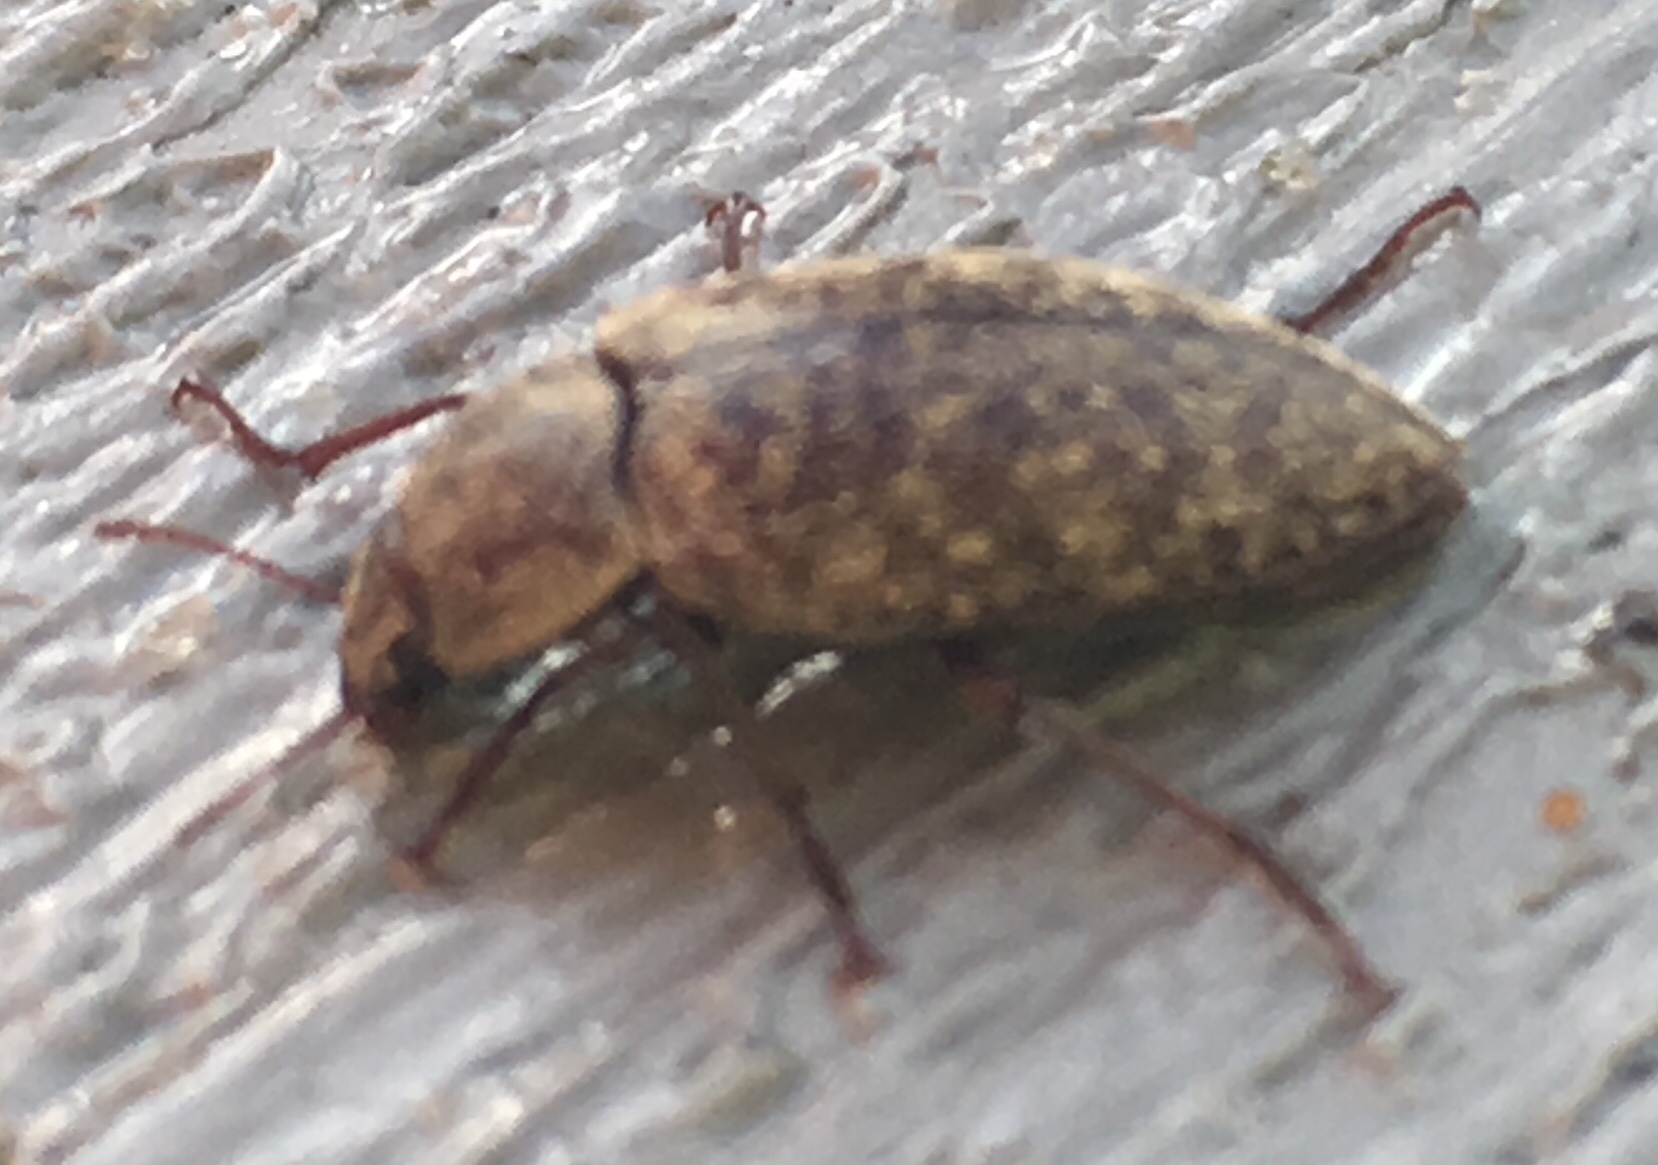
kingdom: Animalia
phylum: Arthropoda
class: Insecta
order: Coleoptera
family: Tenebrionidae
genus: Epitragodes
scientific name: Epitragodes tomentosus
